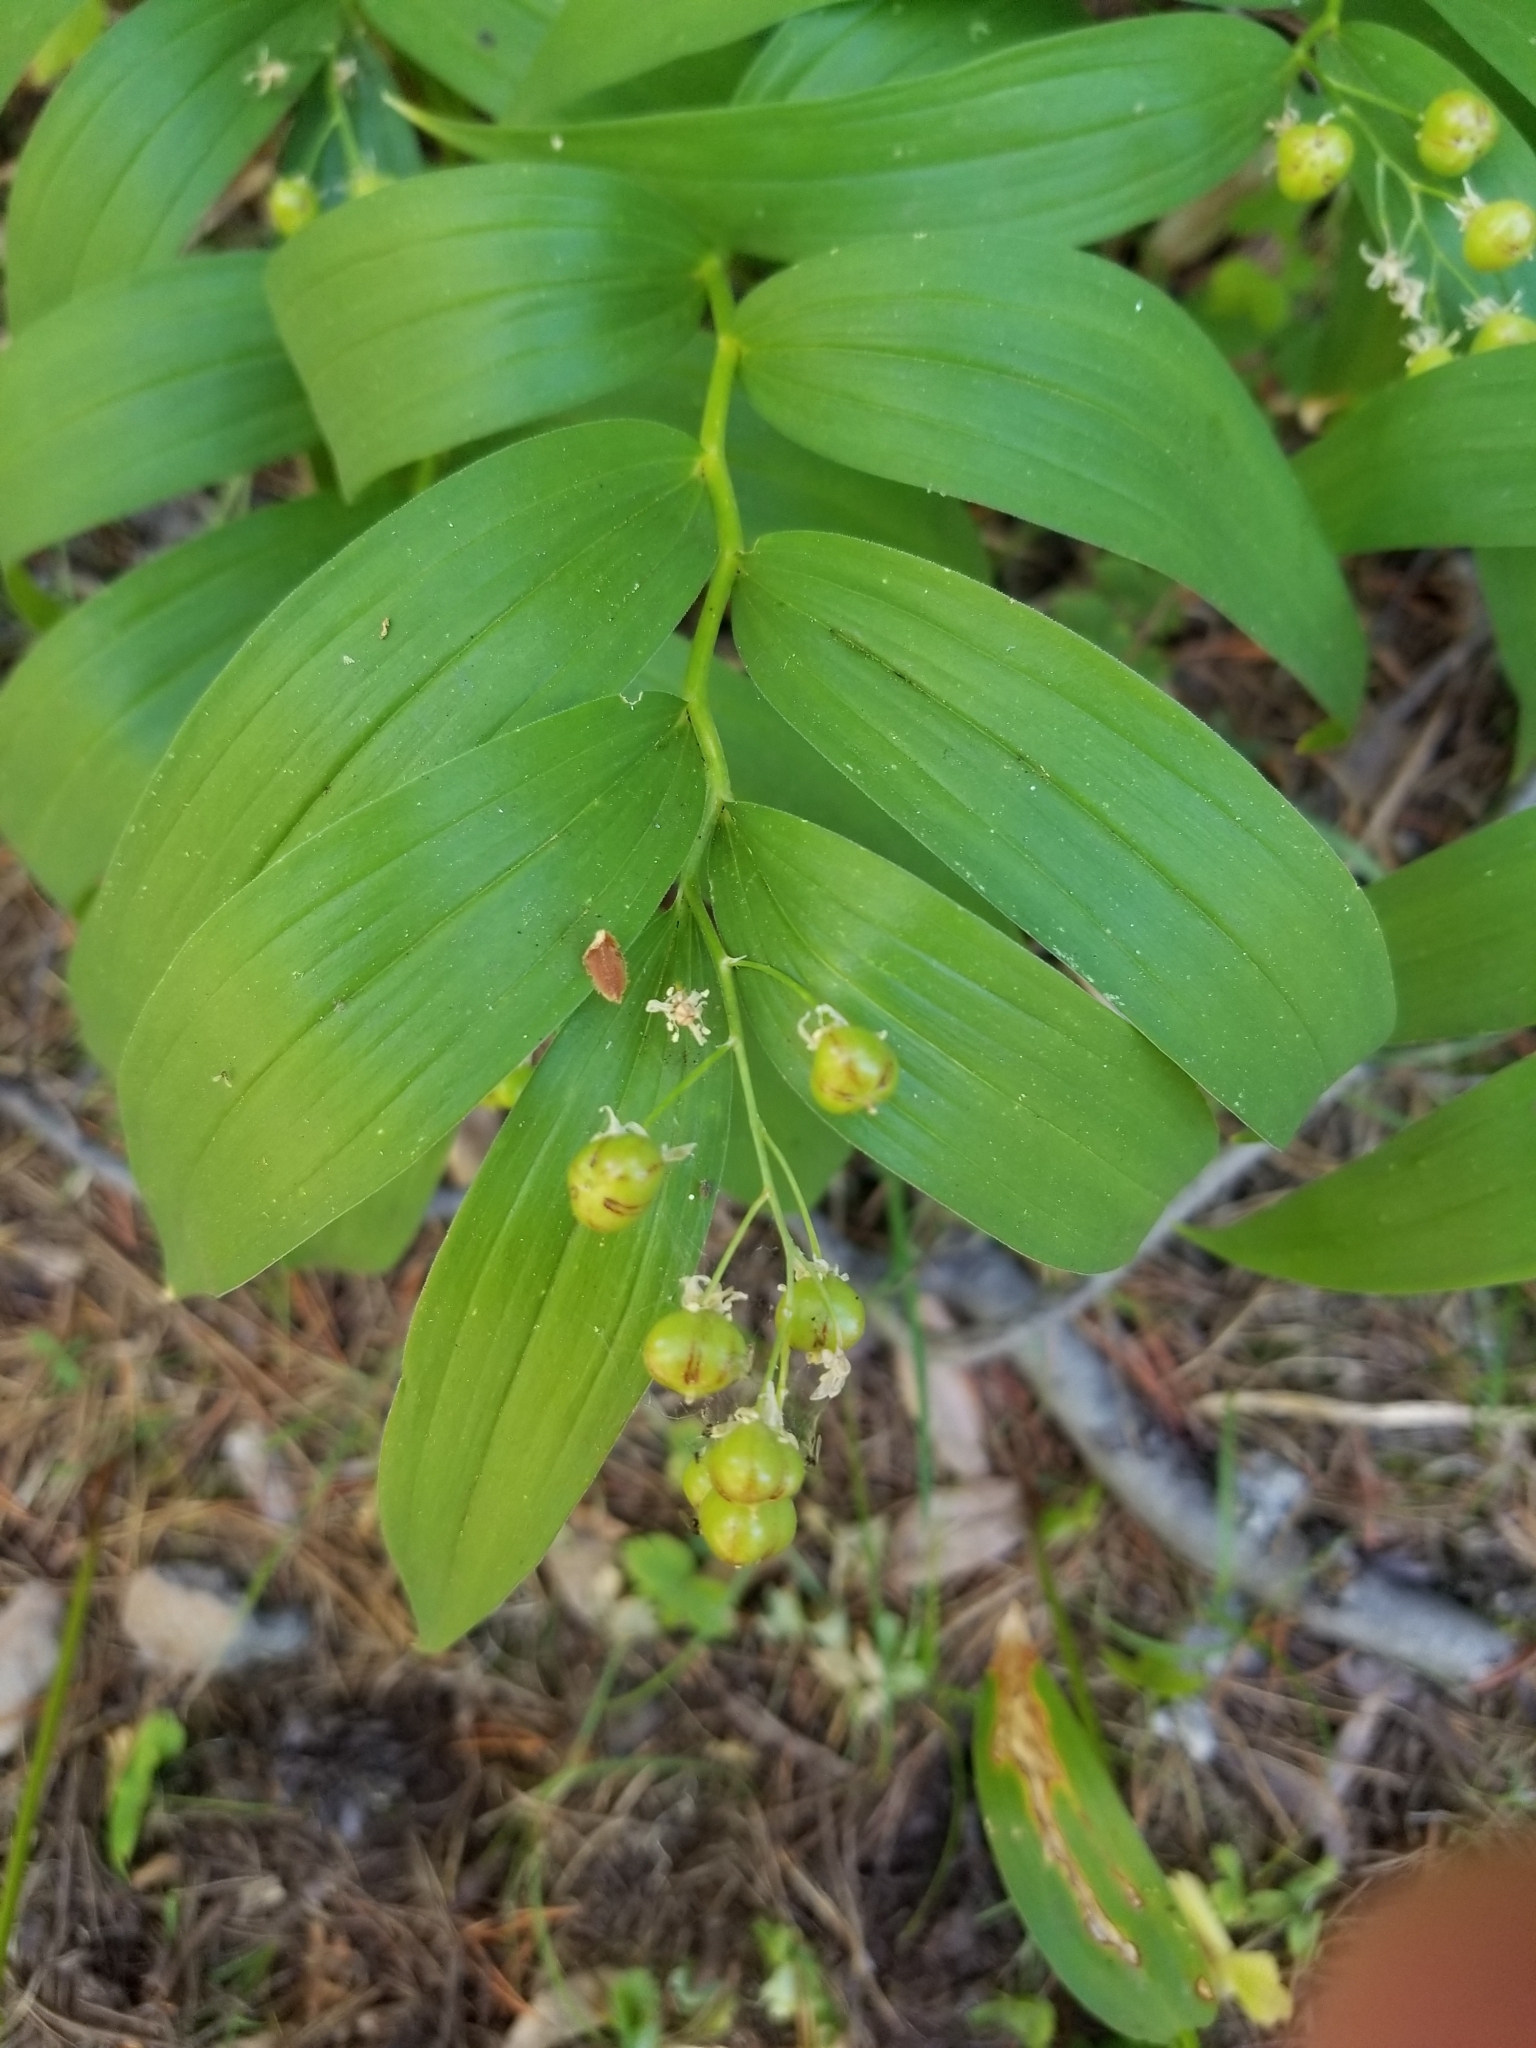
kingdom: Plantae
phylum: Tracheophyta
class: Liliopsida
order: Asparagales
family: Asparagaceae
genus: Maianthemum
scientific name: Maianthemum stellatum
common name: Little false solomon's seal
